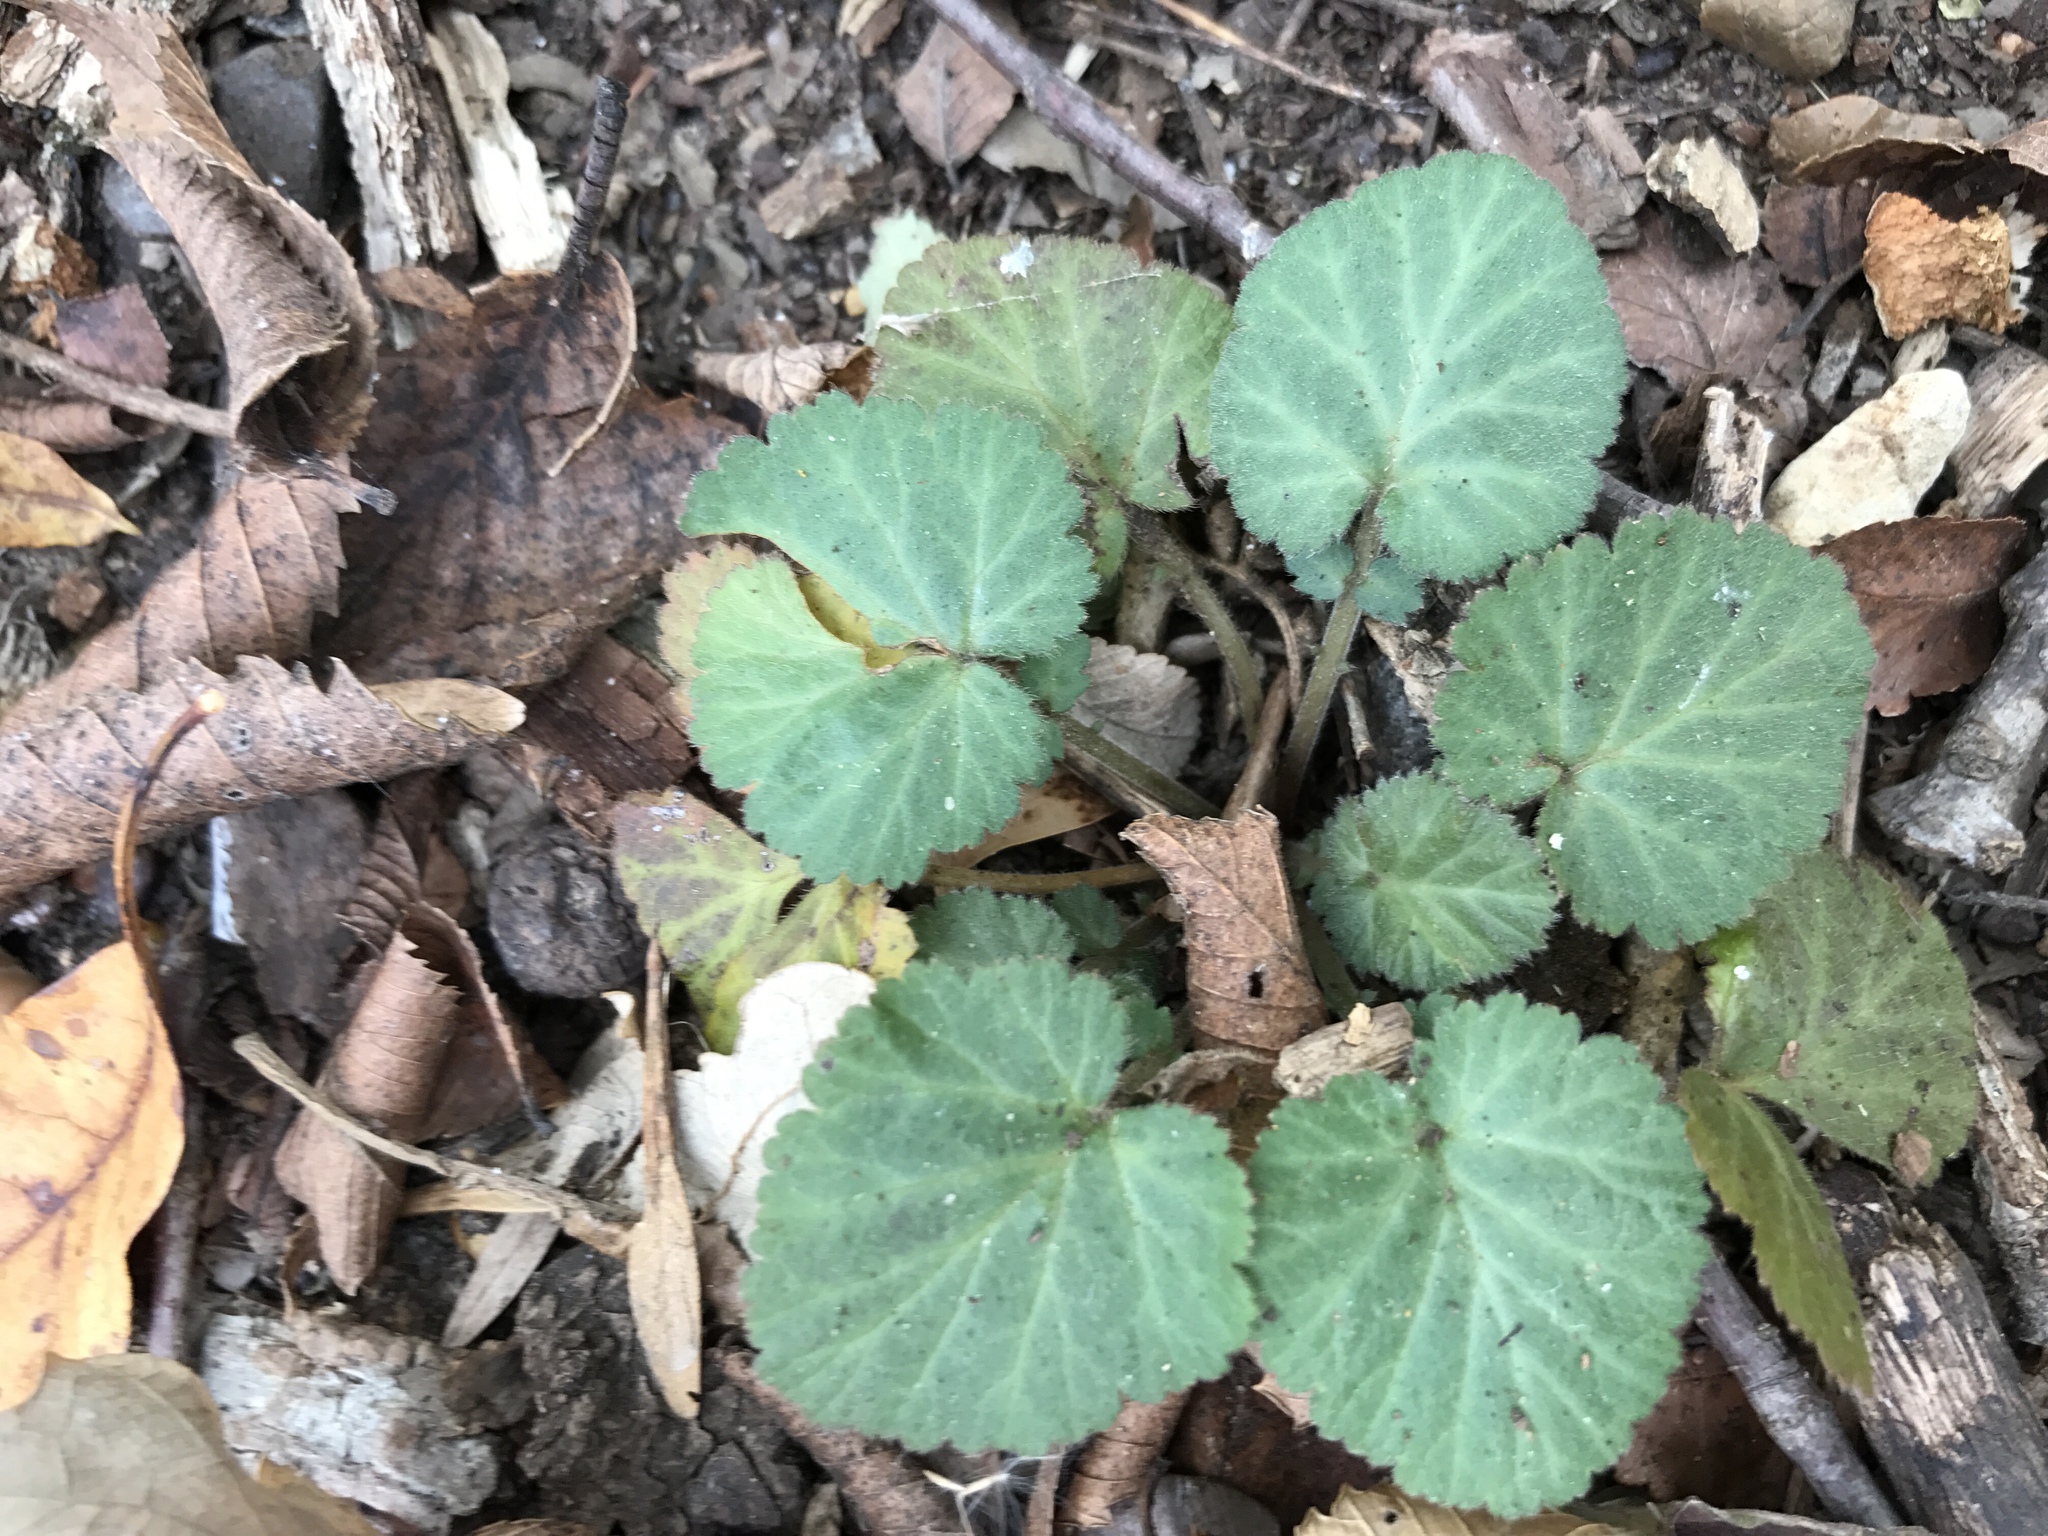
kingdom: Plantae
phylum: Tracheophyta
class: Magnoliopsida
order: Rosales
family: Rosaceae
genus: Geum
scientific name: Geum canadense
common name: White avens
